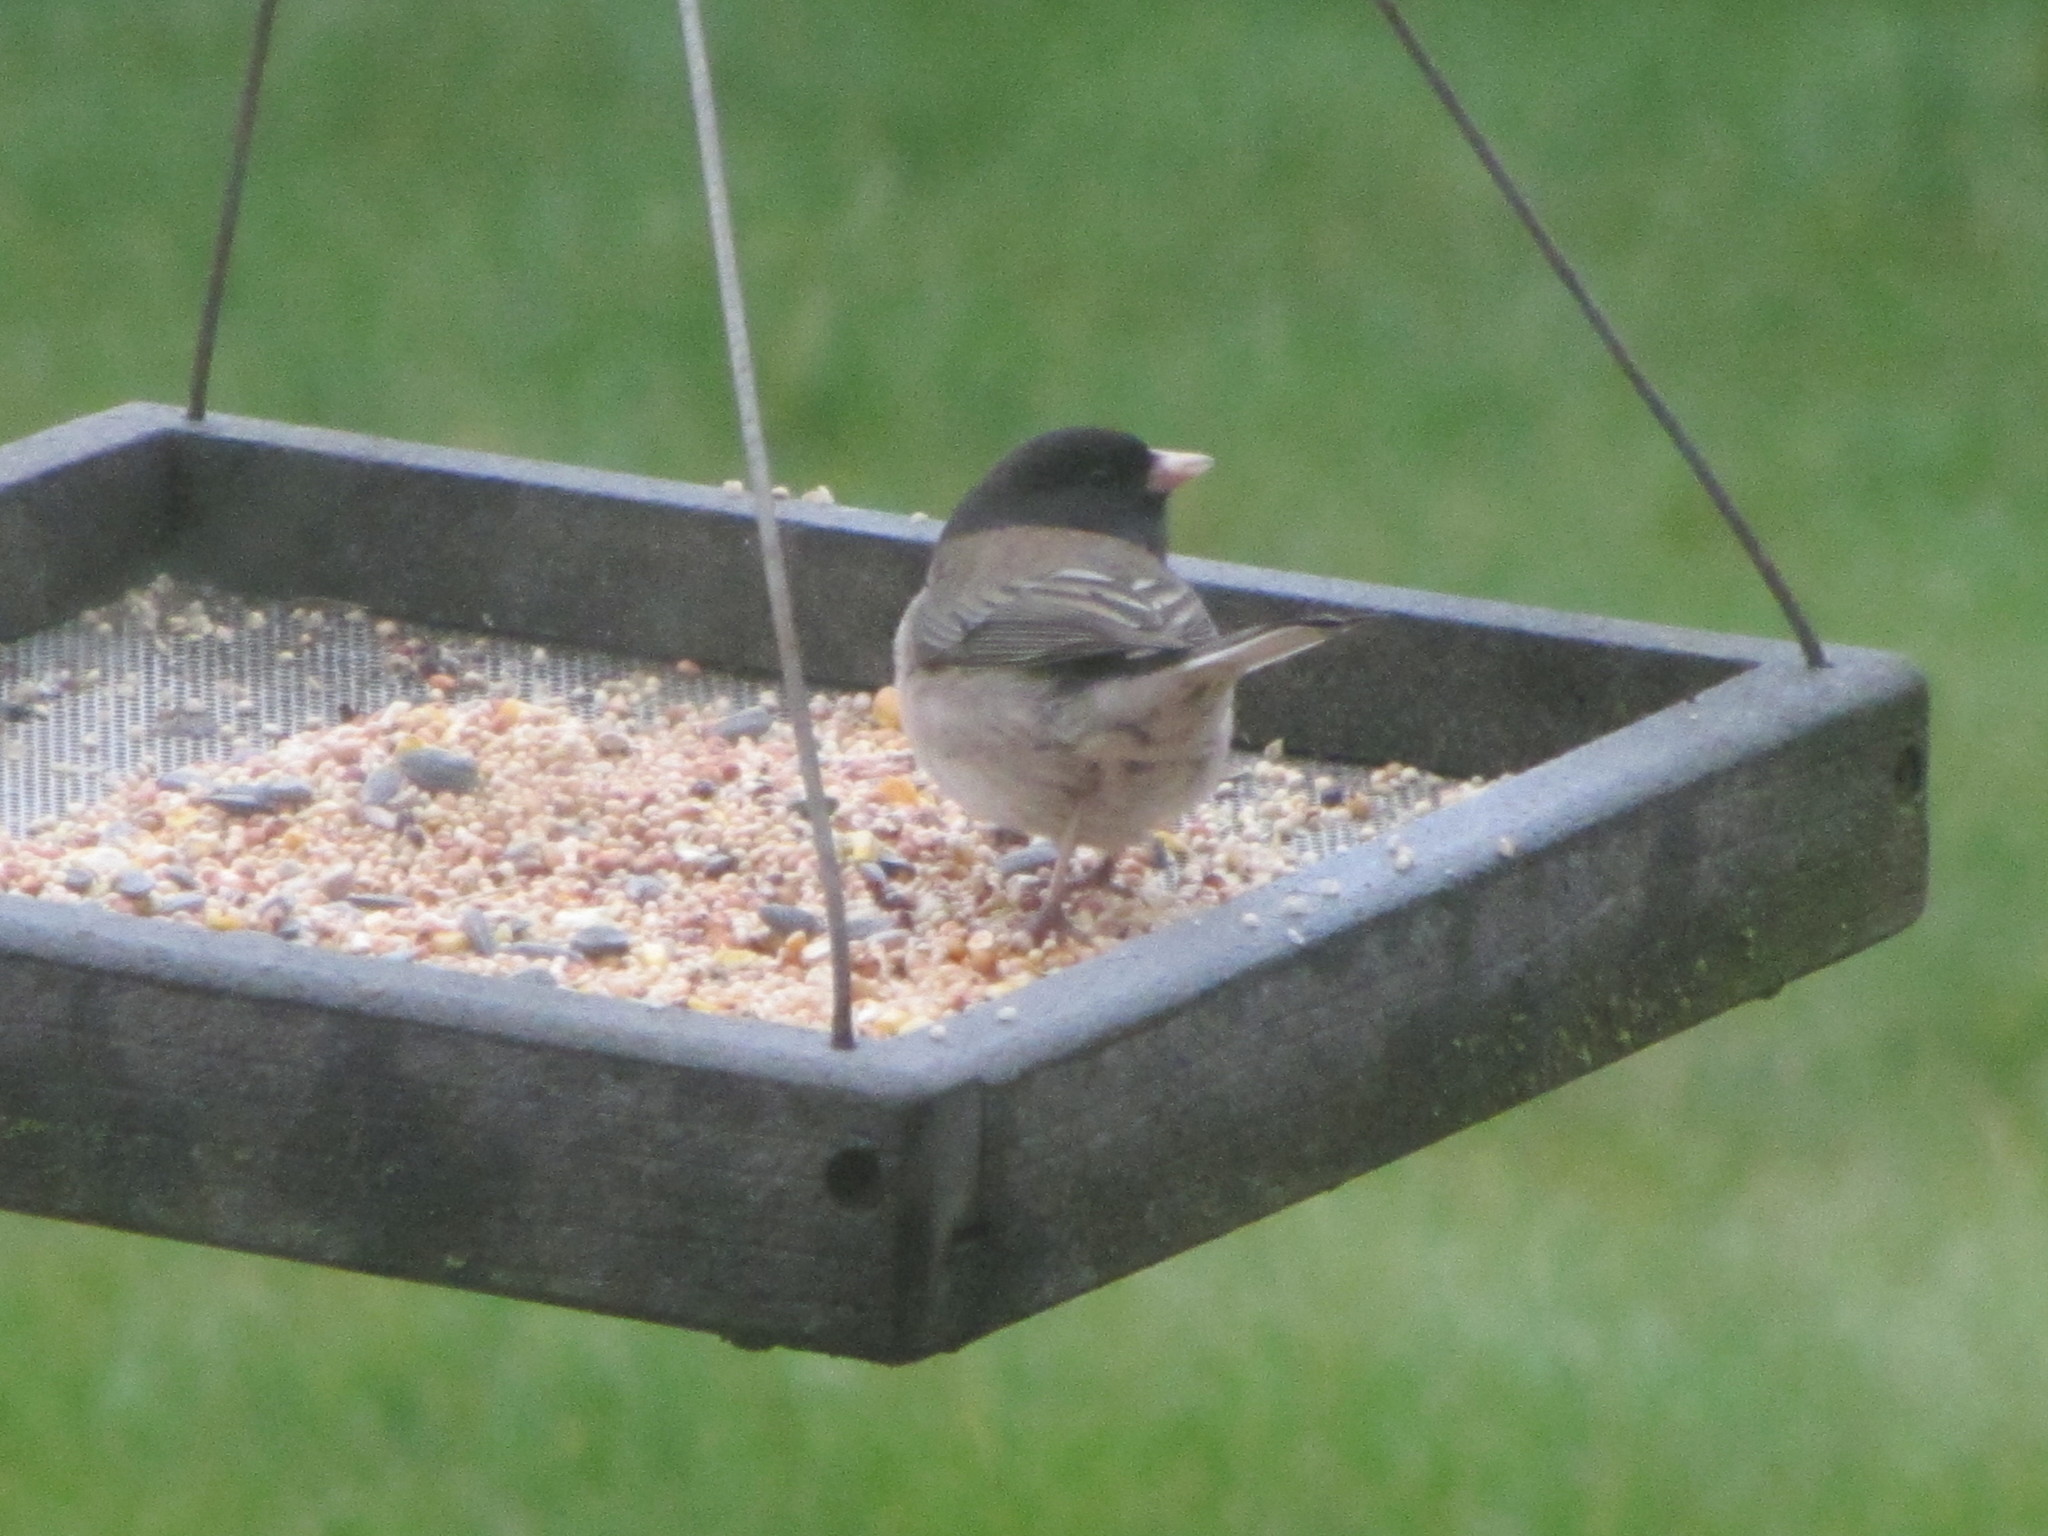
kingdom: Animalia
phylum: Chordata
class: Aves
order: Passeriformes
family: Passerellidae
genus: Junco
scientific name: Junco hyemalis
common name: Dark-eyed junco
